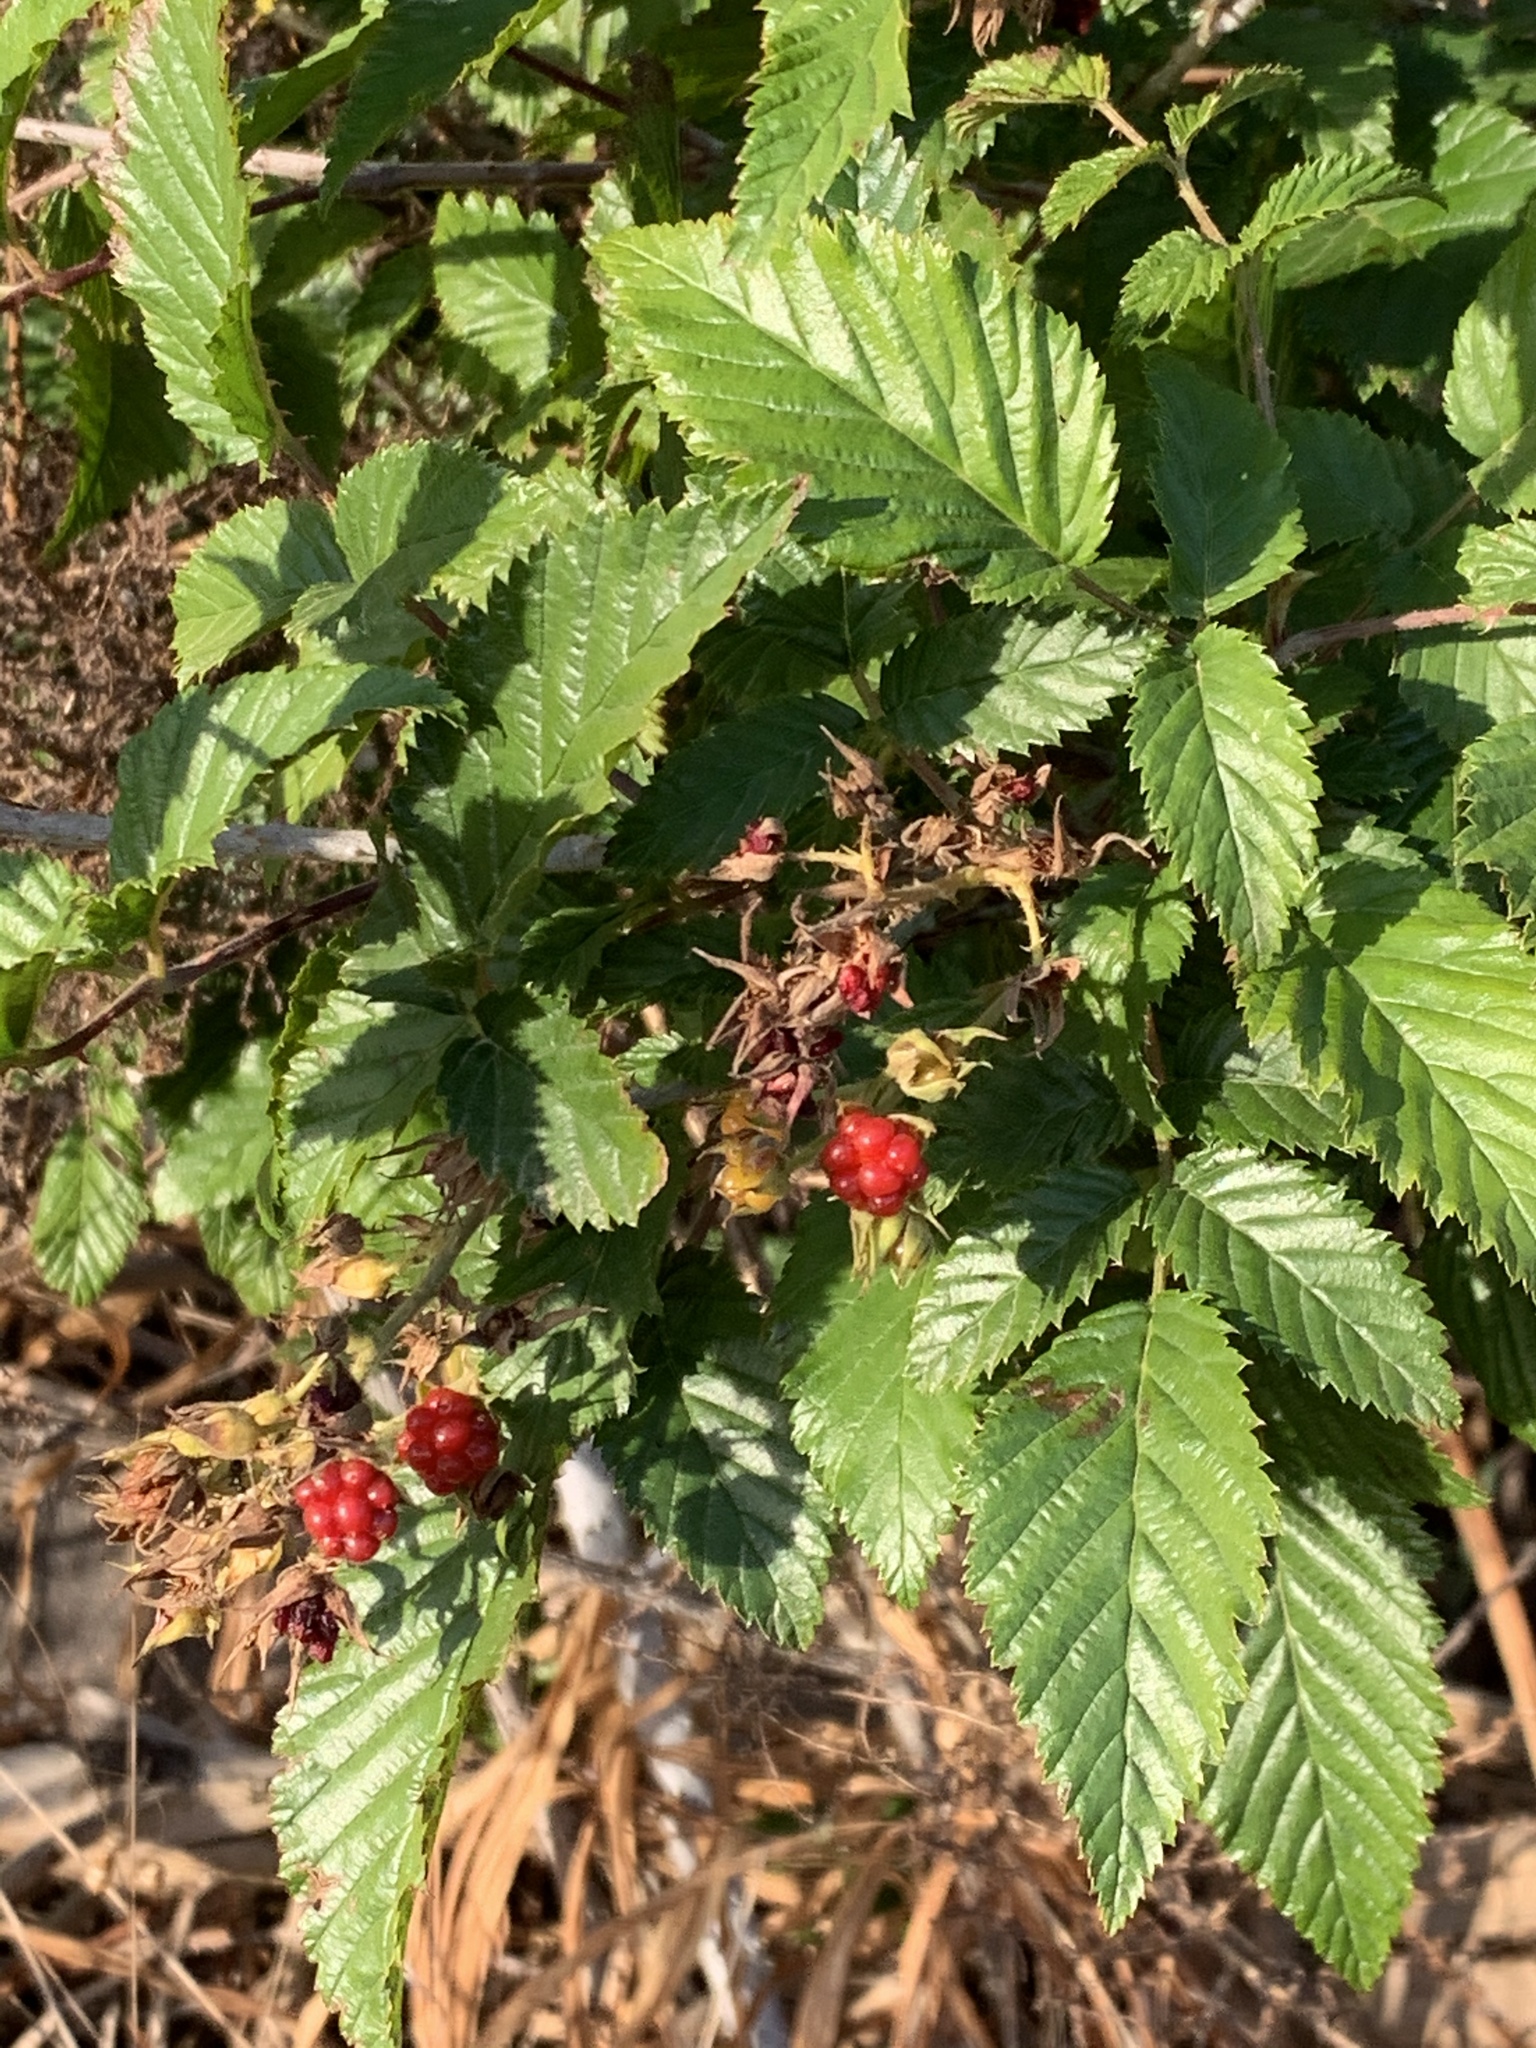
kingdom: Plantae
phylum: Tracheophyta
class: Magnoliopsida
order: Rosales
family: Rosaceae
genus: Rubus
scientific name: Rubus pinnatus
